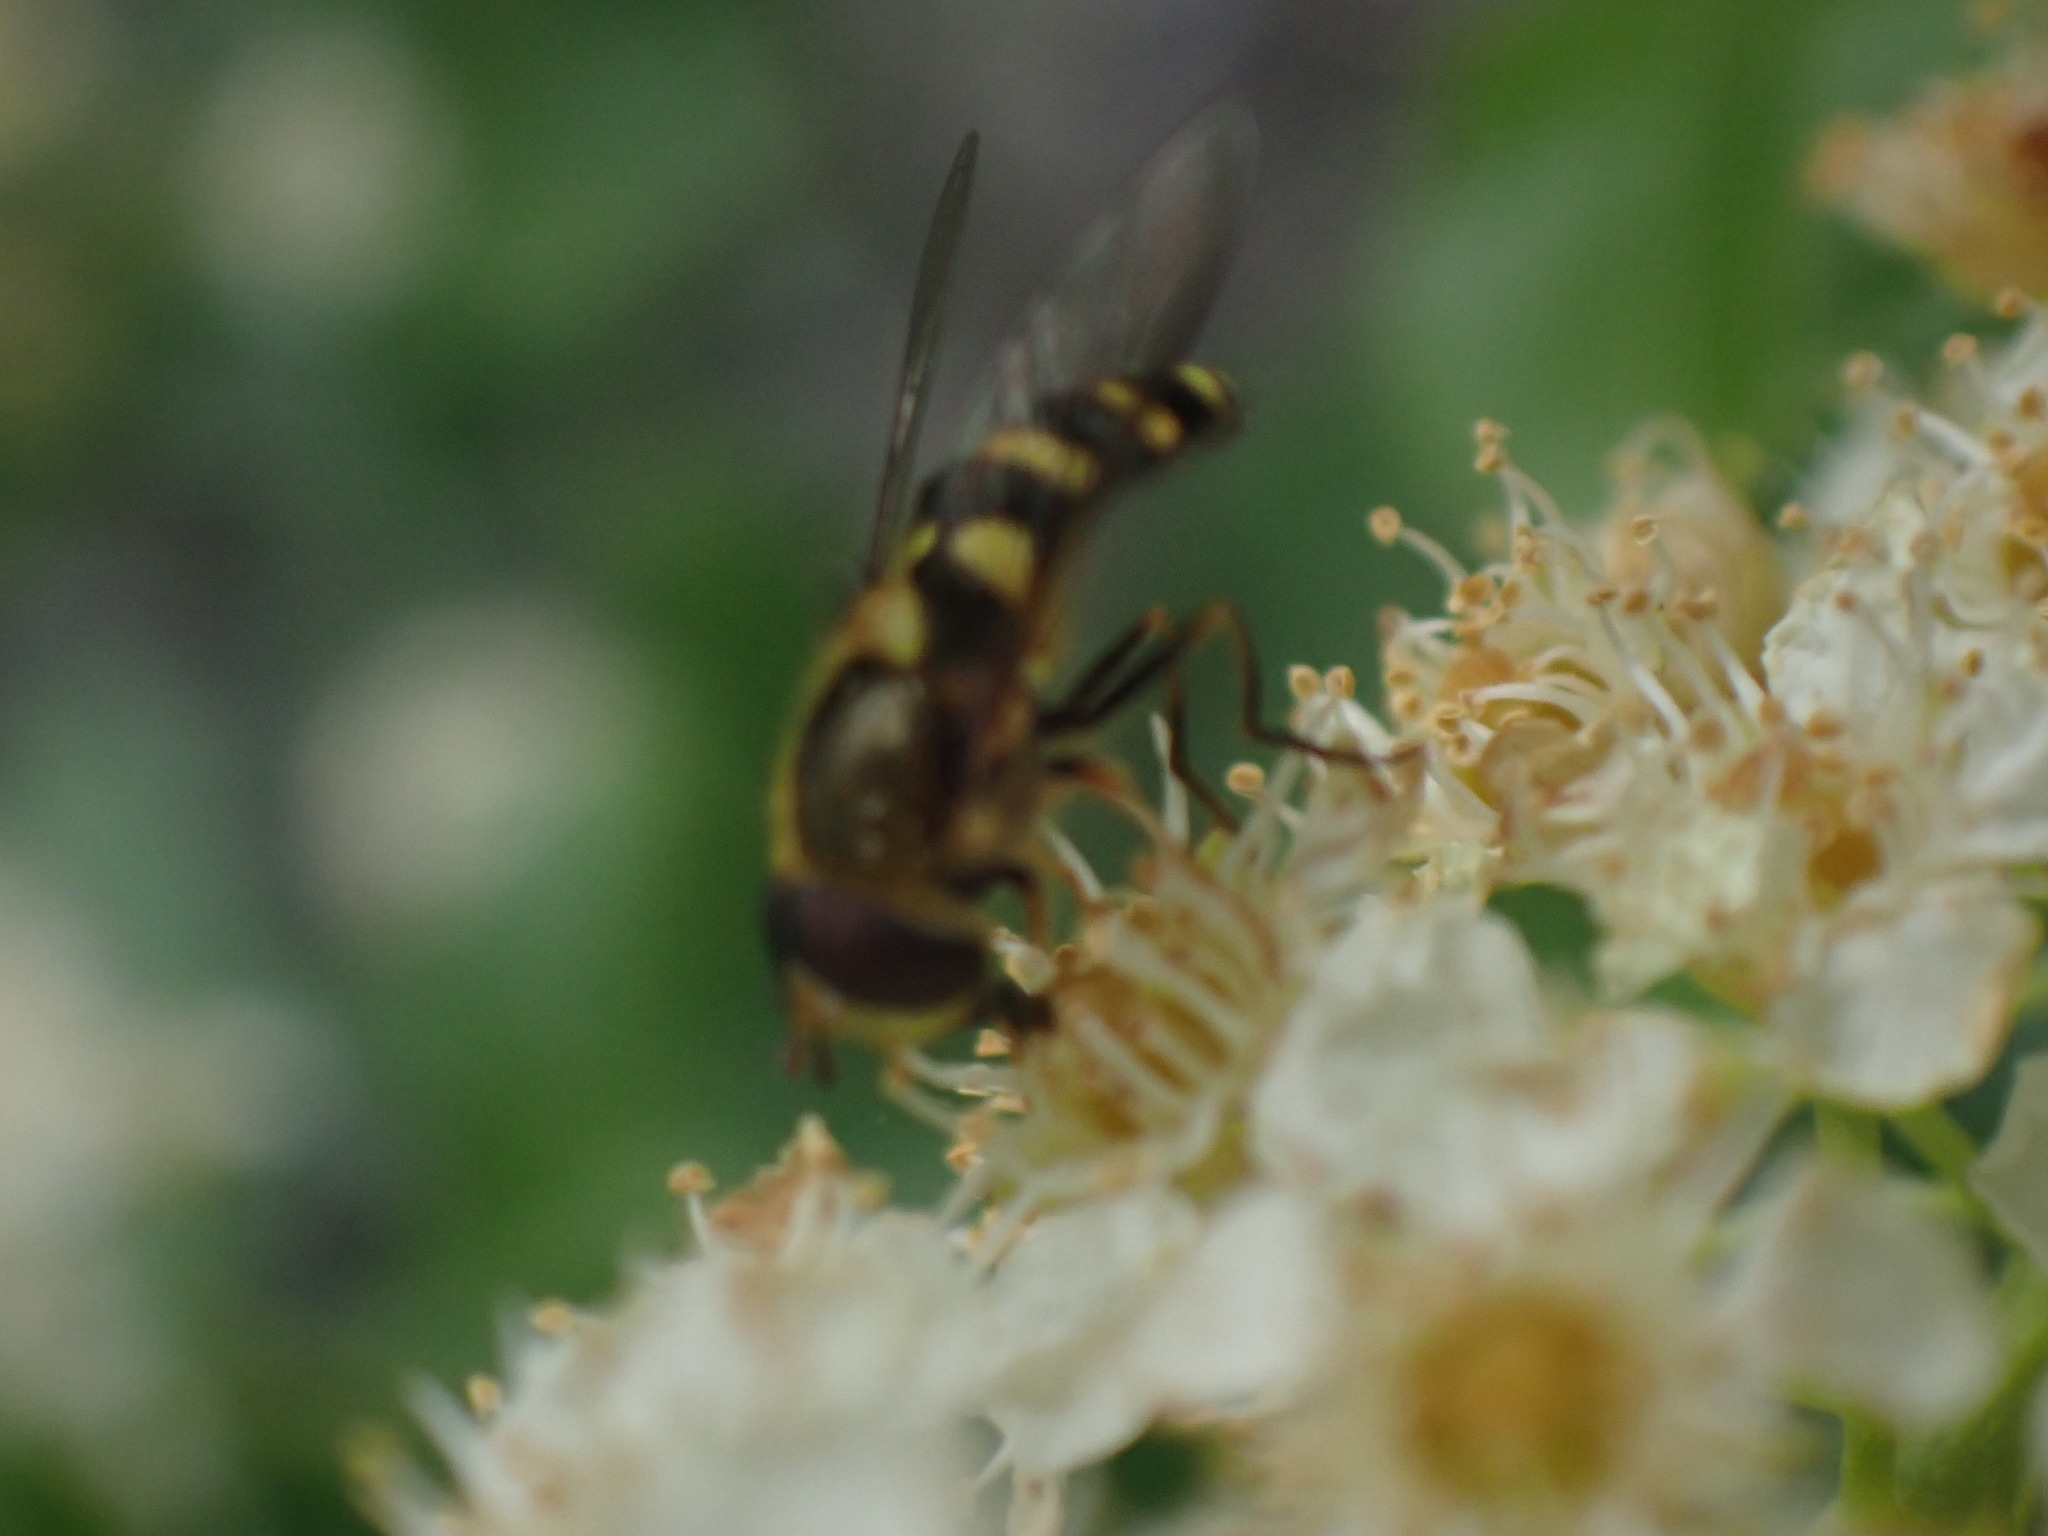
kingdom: Animalia
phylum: Arthropoda
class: Insecta
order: Diptera
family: Syrphidae
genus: Syrphus
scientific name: Syrphus opinator
